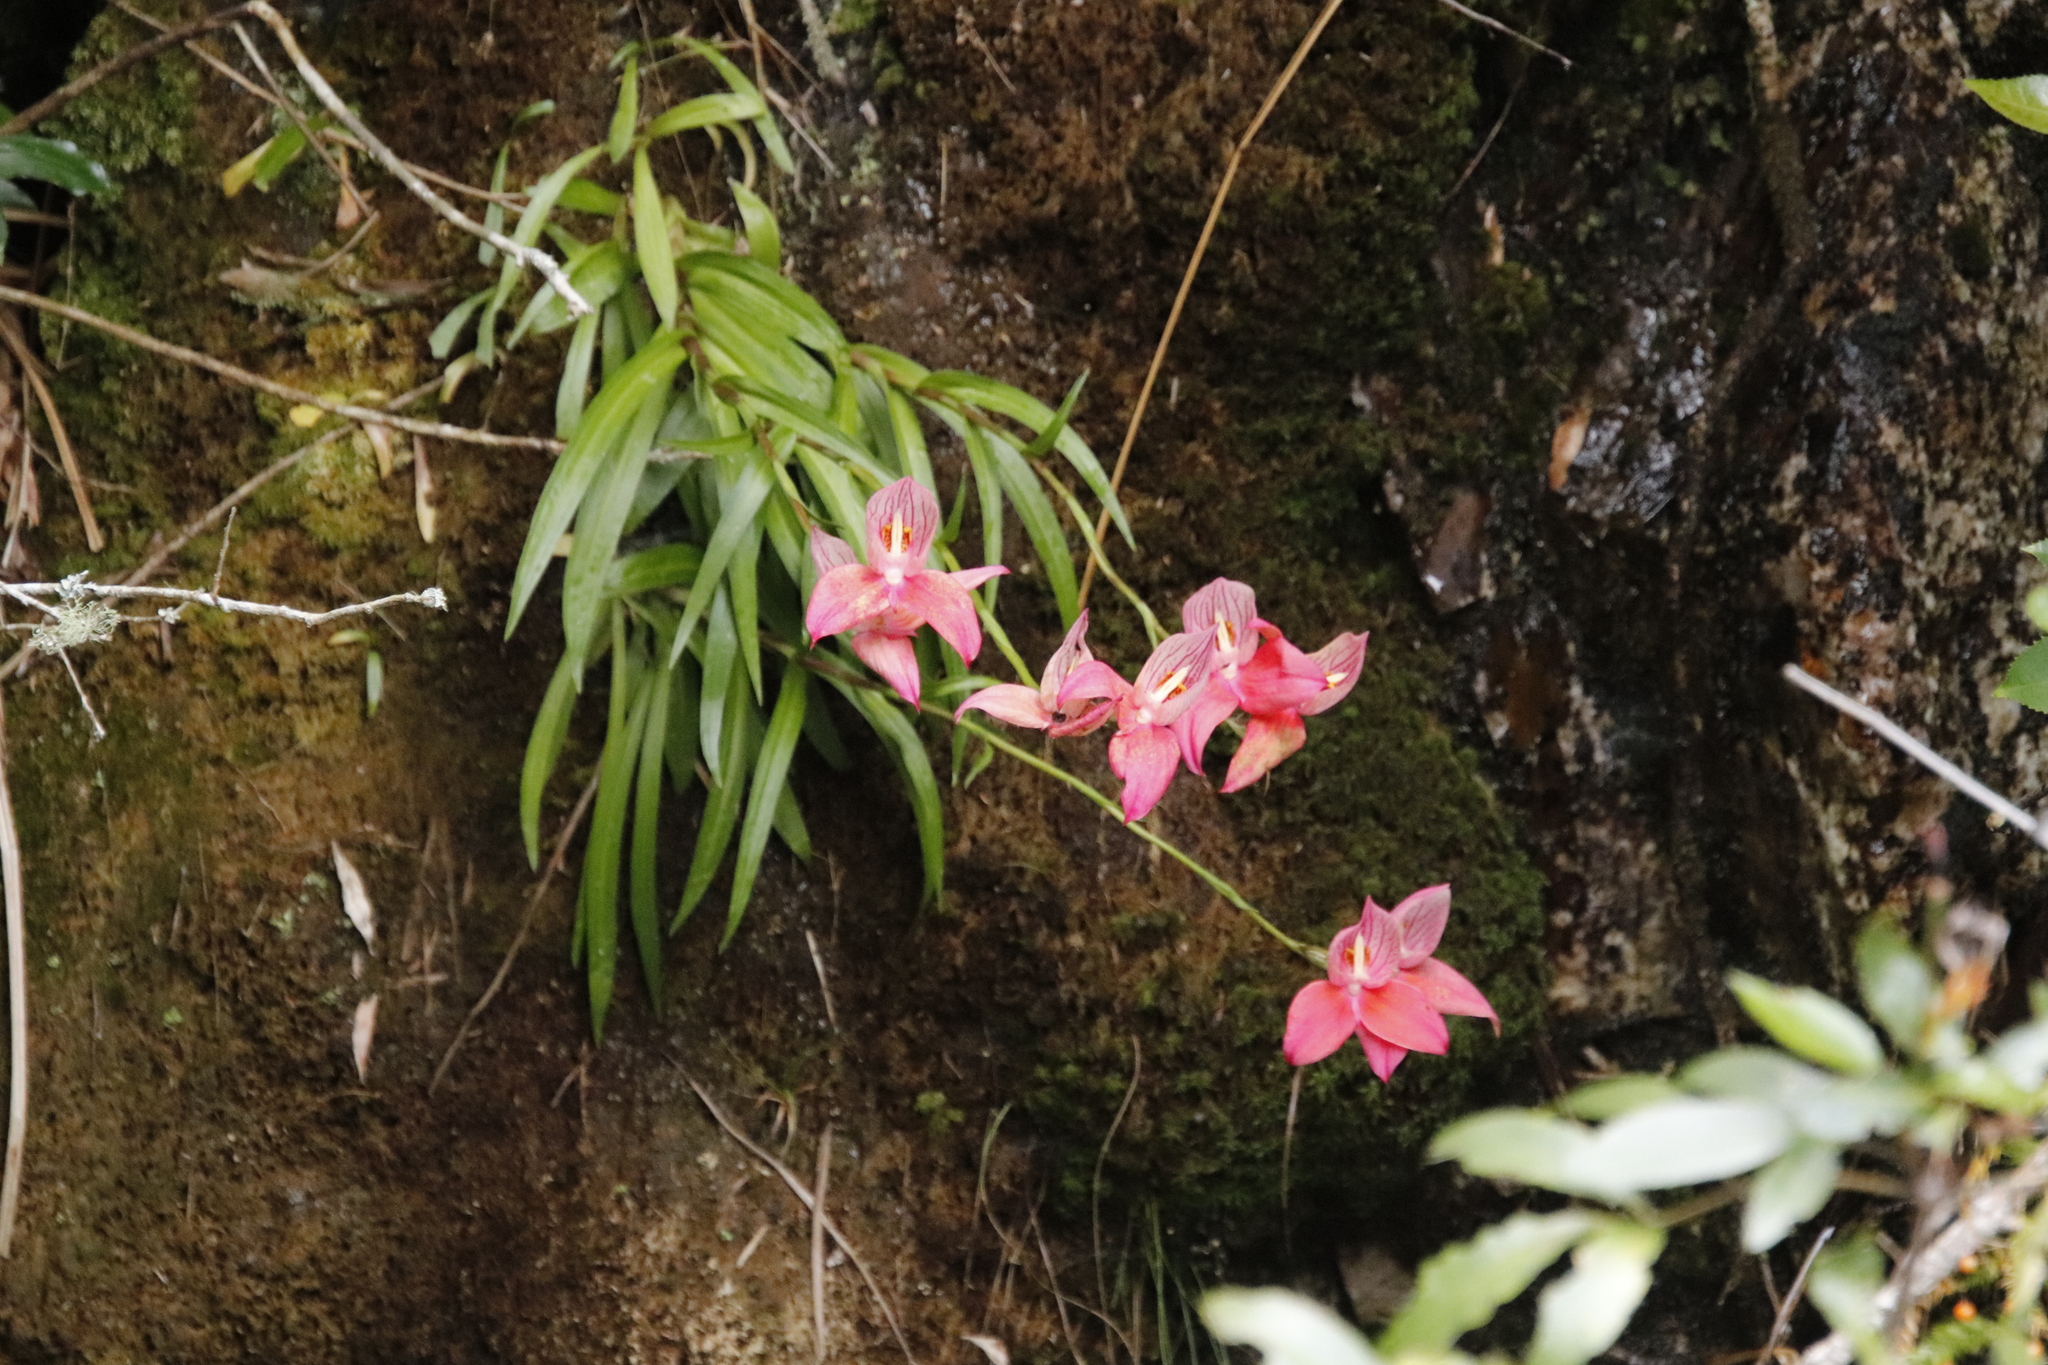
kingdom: Plantae
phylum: Tracheophyta
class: Liliopsida
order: Asparagales
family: Orchidaceae
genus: Disa
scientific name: Disa uniflora
